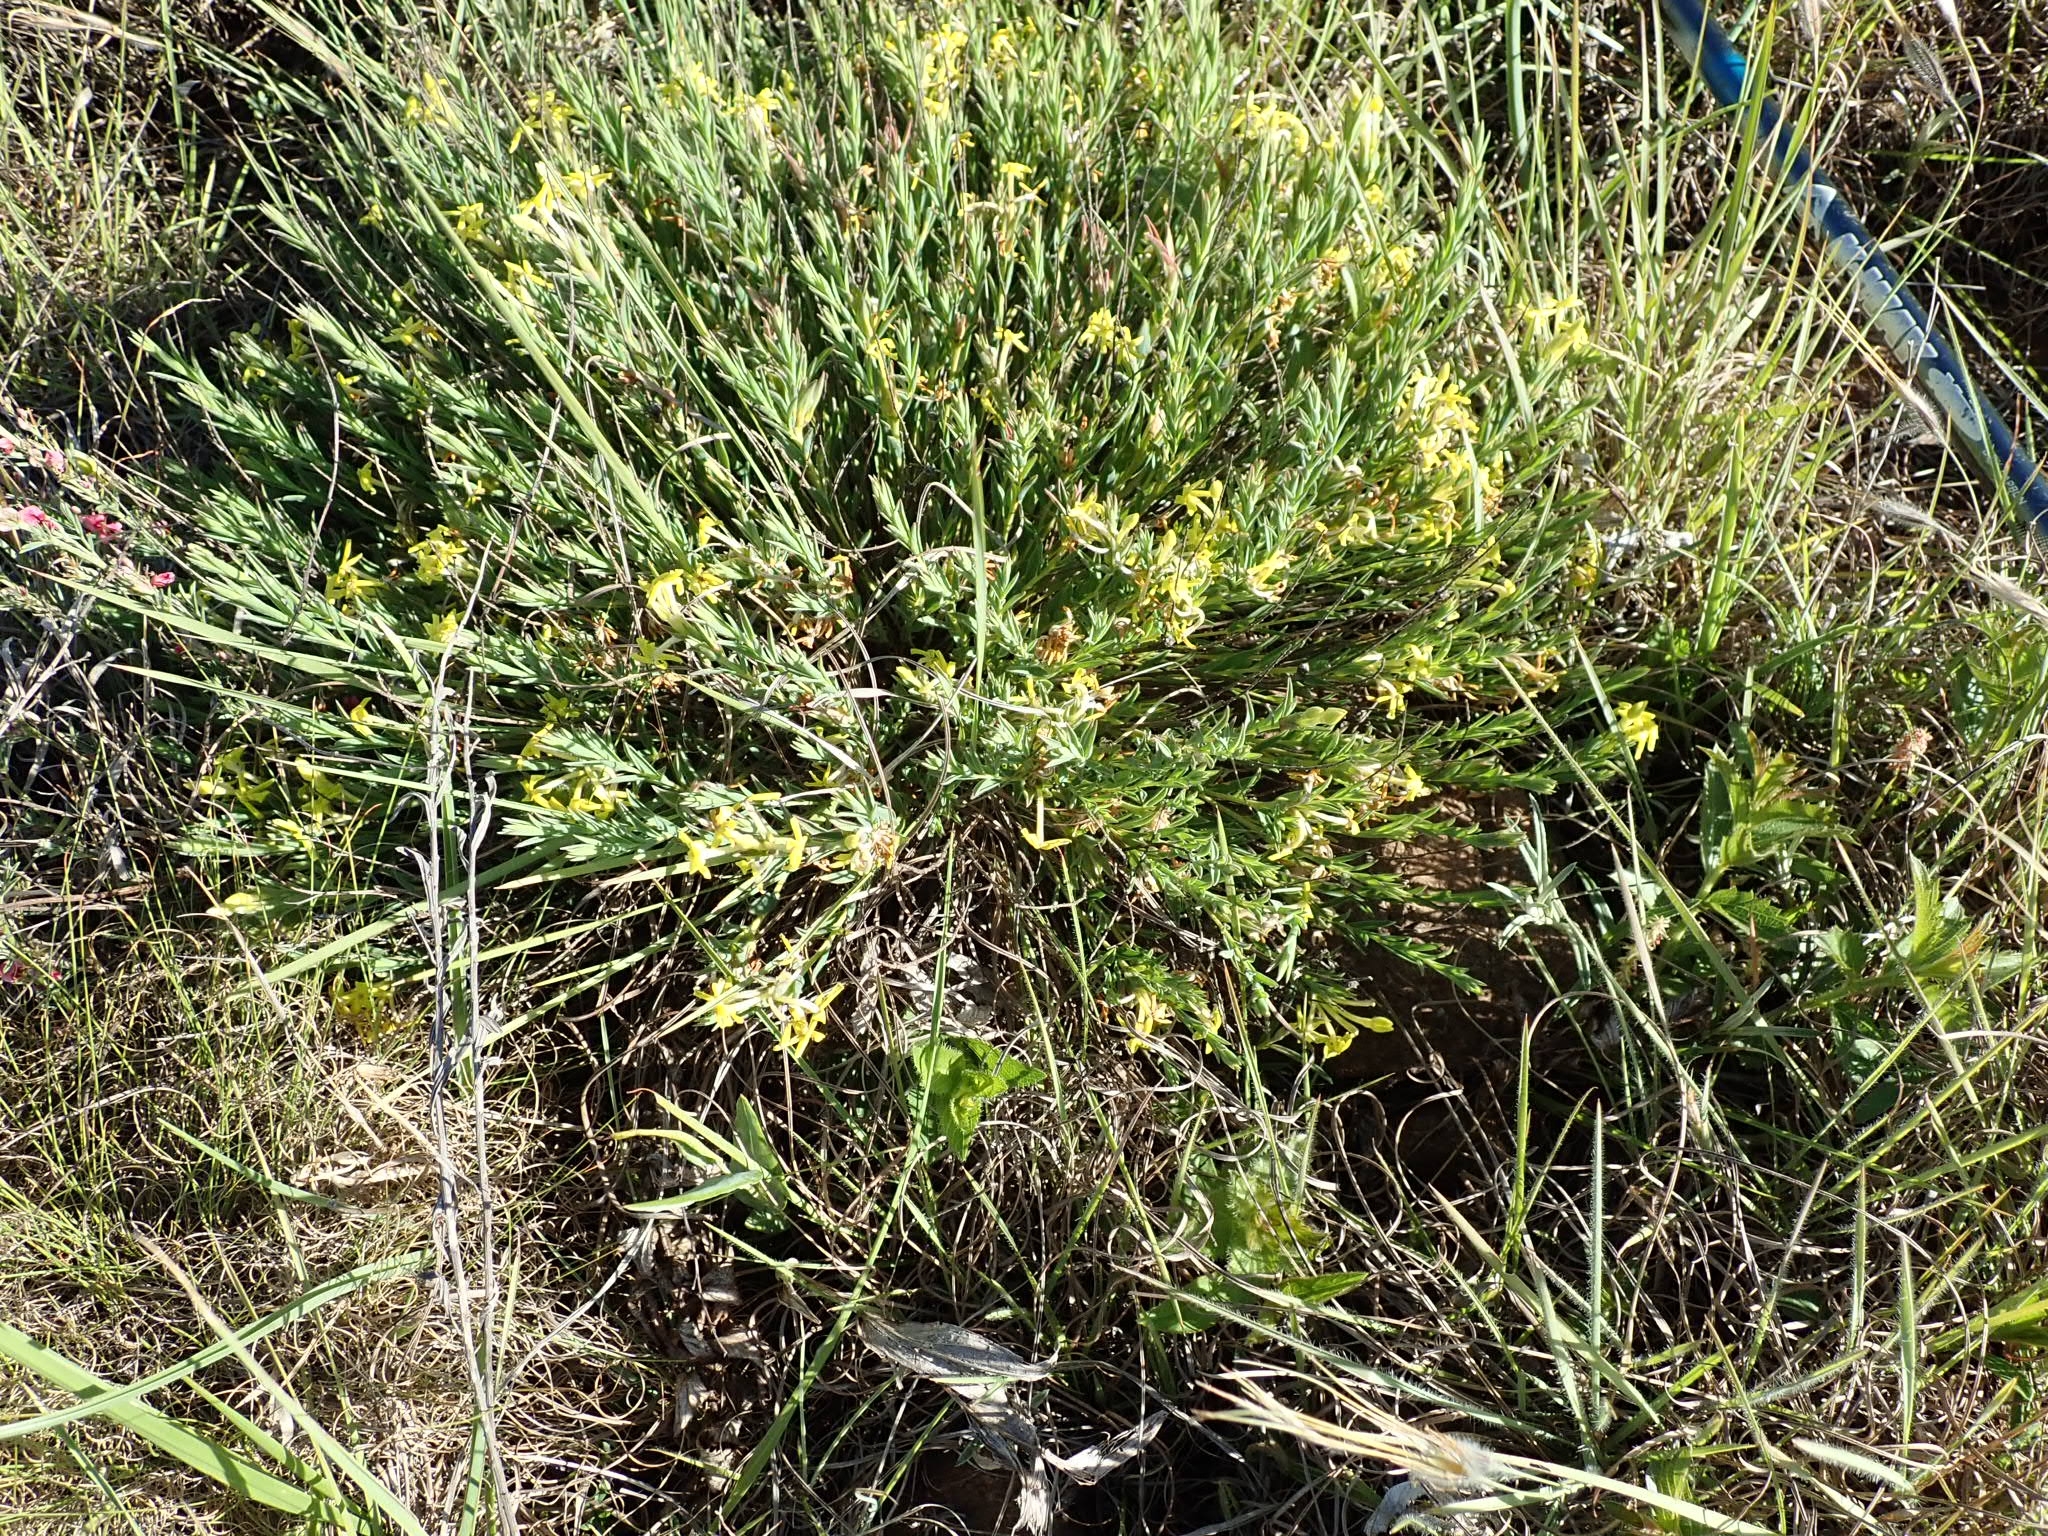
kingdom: Plantae
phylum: Tracheophyta
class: Magnoliopsida
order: Malvales
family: Thymelaeaceae
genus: Gnidia
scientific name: Gnidia splendens
